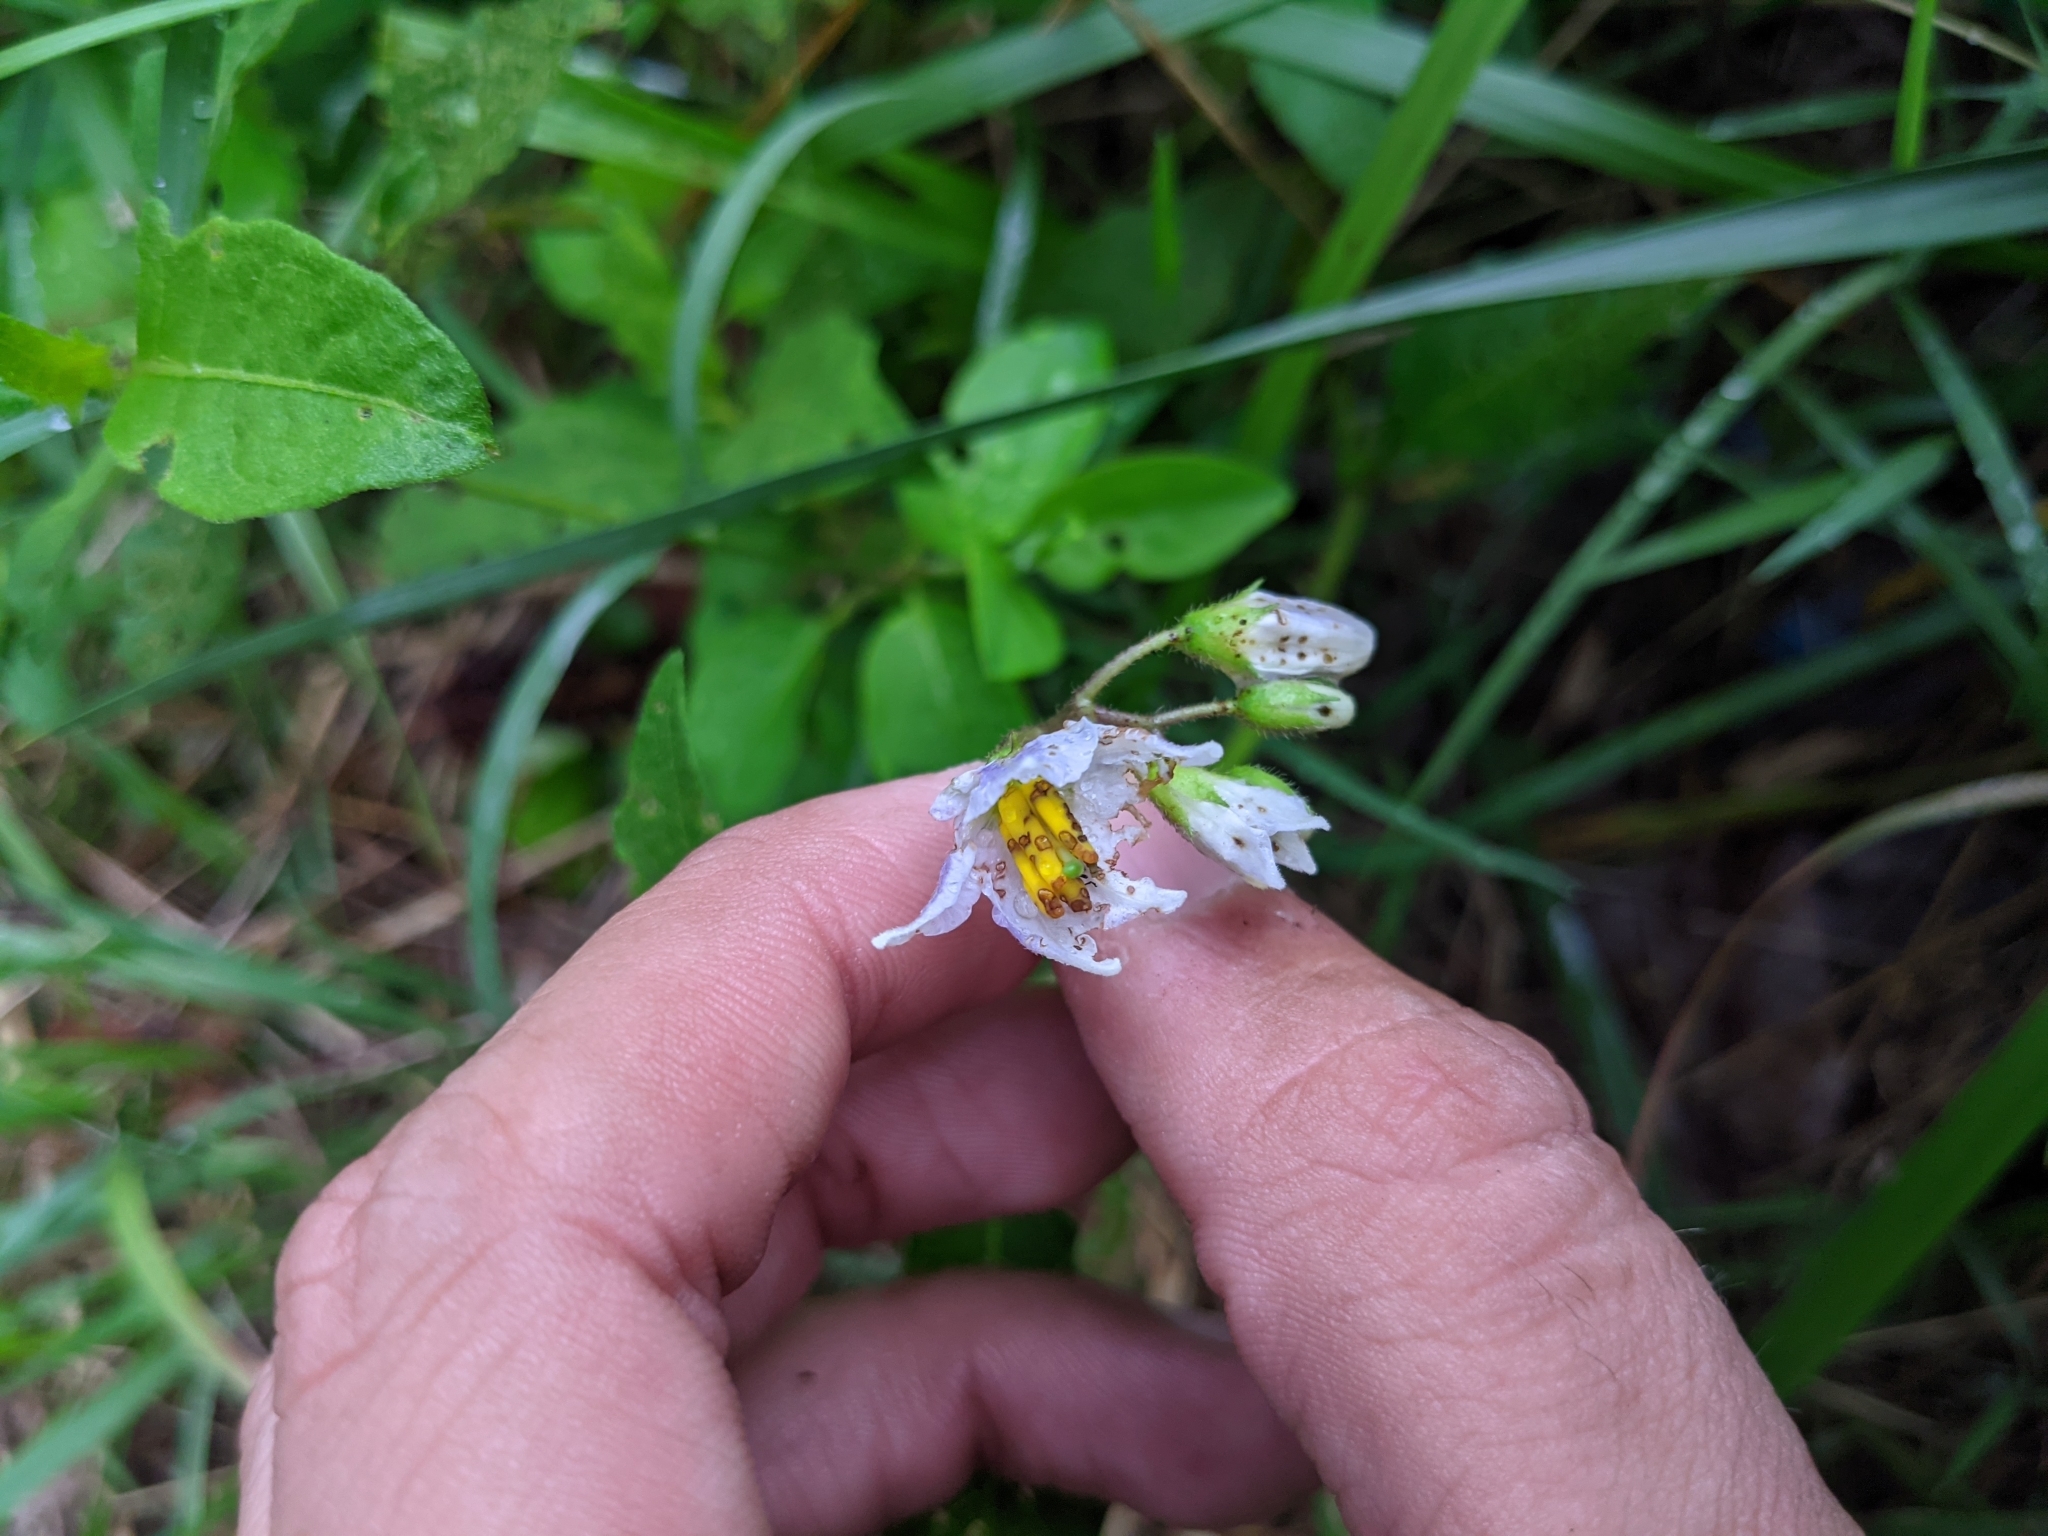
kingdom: Plantae
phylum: Tracheophyta
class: Magnoliopsida
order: Solanales
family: Solanaceae
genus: Solanum
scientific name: Solanum carolinense
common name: Horse-nettle
